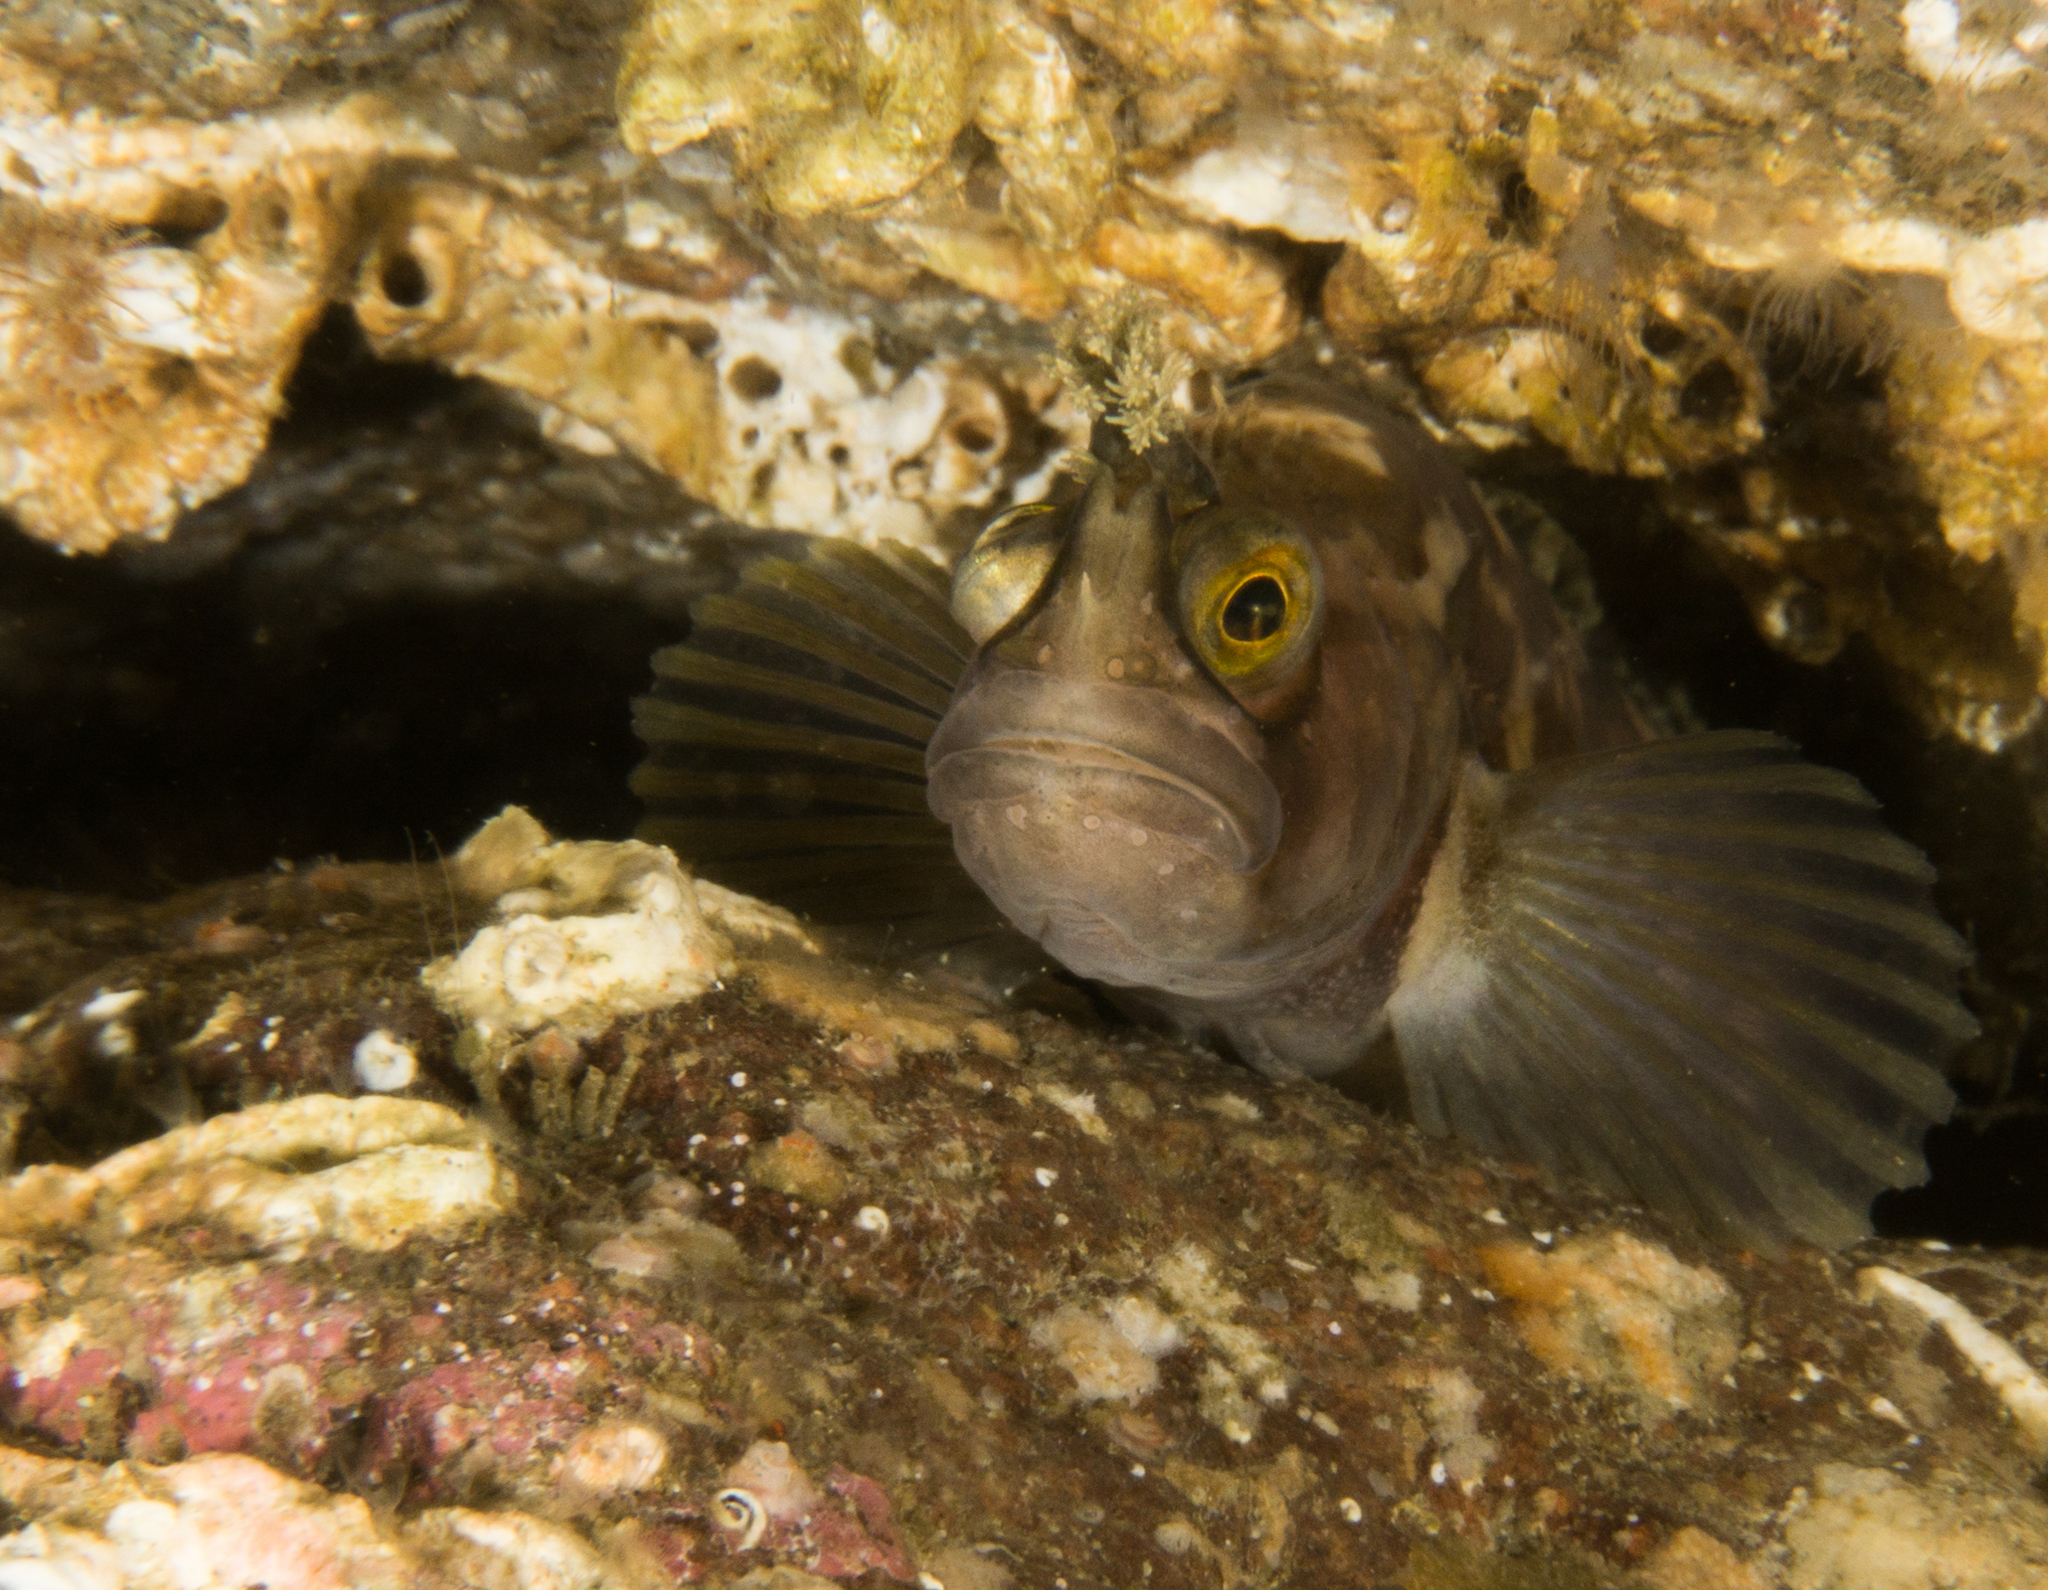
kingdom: Animalia
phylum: Chordata
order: Perciformes
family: Stichaeidae
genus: Chirolophis
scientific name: Chirolophis ascanii
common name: Yarrell's blenny
